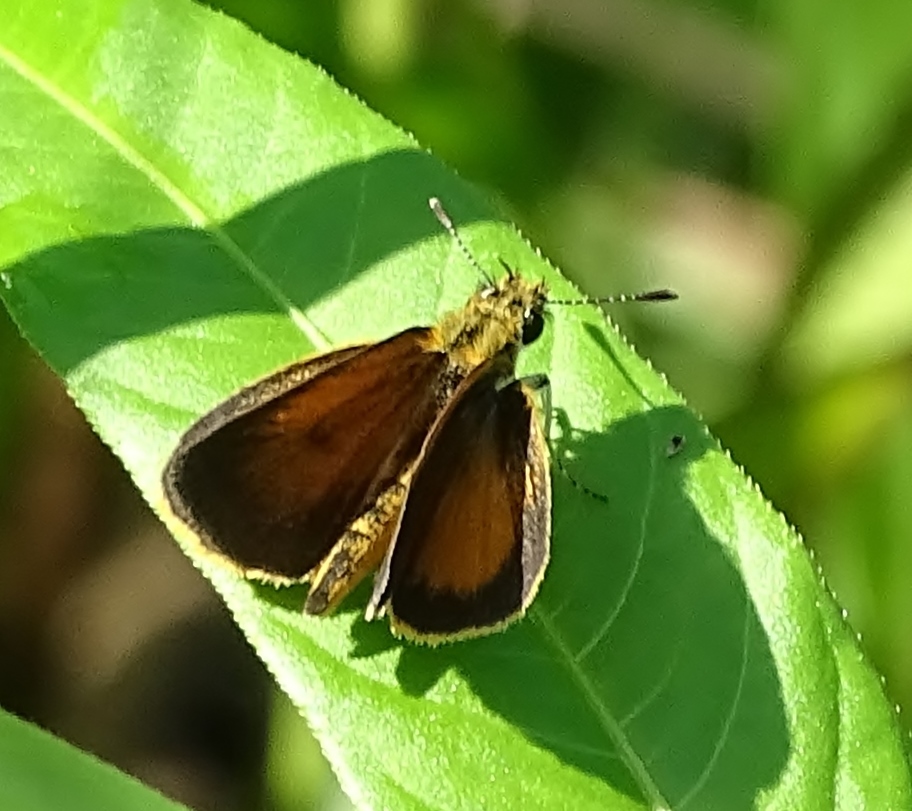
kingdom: Animalia
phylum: Arthropoda
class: Insecta
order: Lepidoptera
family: Hesperiidae
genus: Ancyloxypha
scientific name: Ancyloxypha numitor
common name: Least skipper
